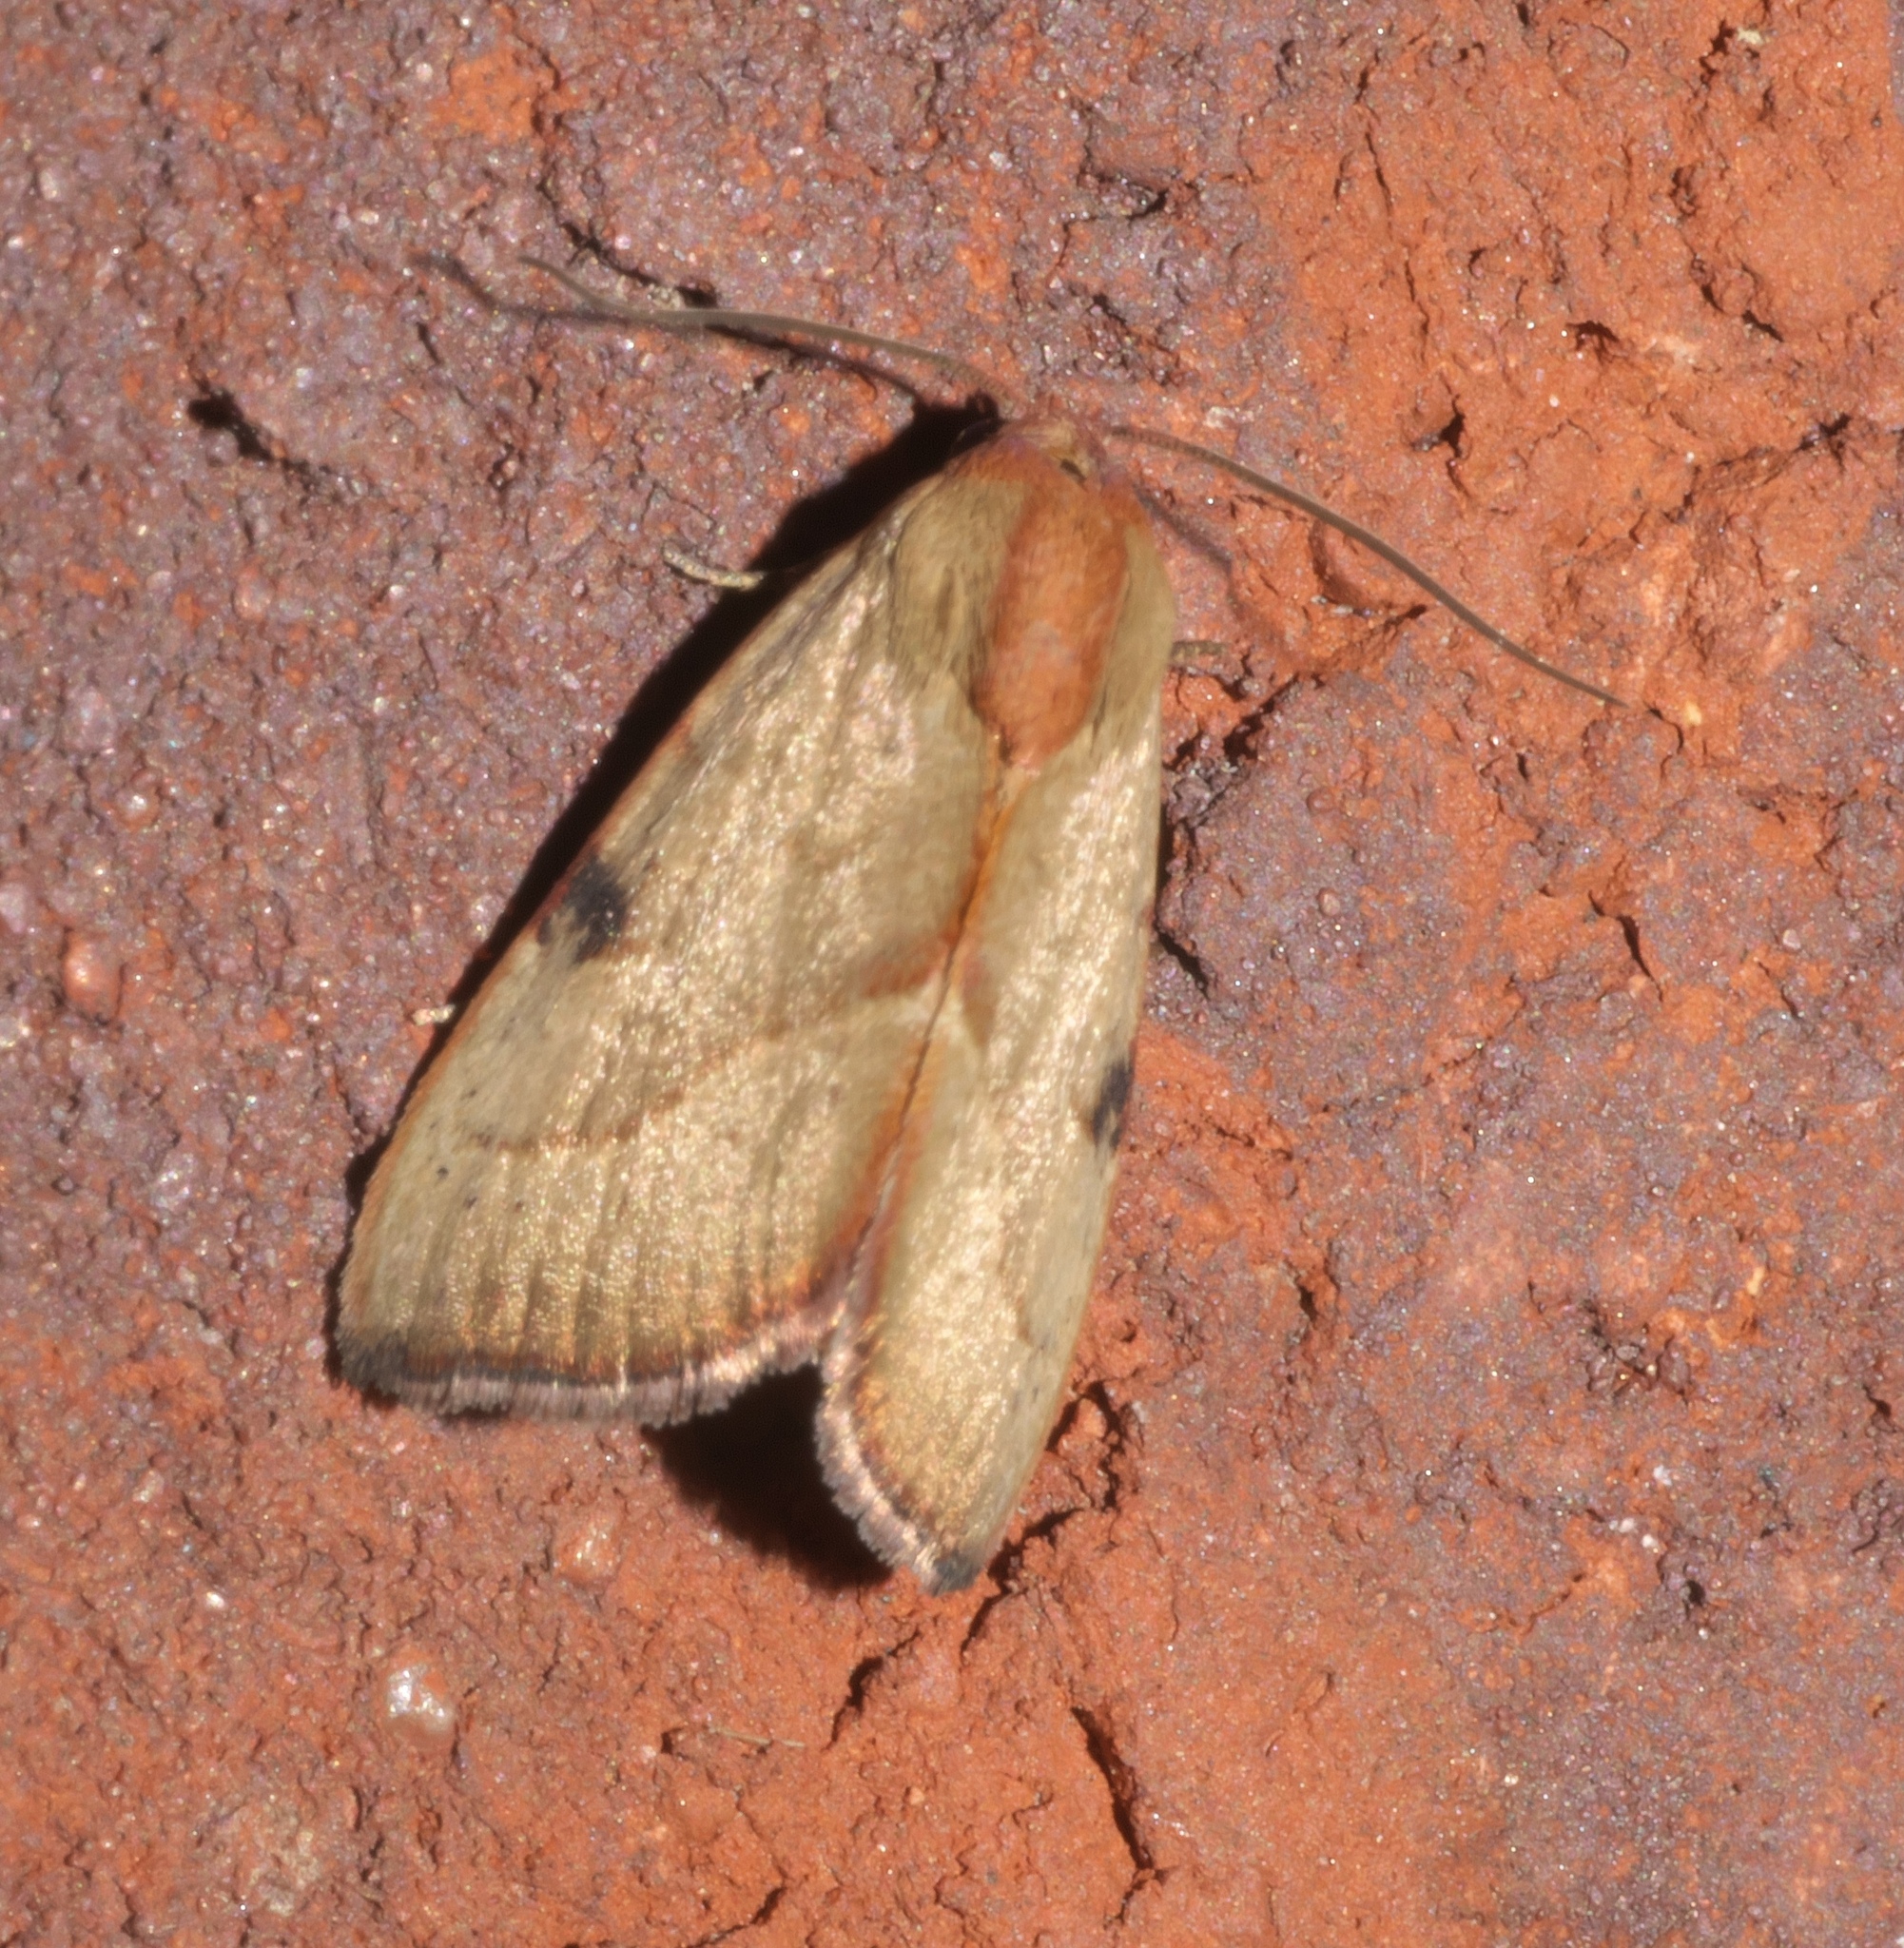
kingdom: Animalia
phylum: Arthropoda
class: Insecta
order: Lepidoptera
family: Noctuidae
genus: Galgula
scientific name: Galgula partita
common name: Wedgeling
